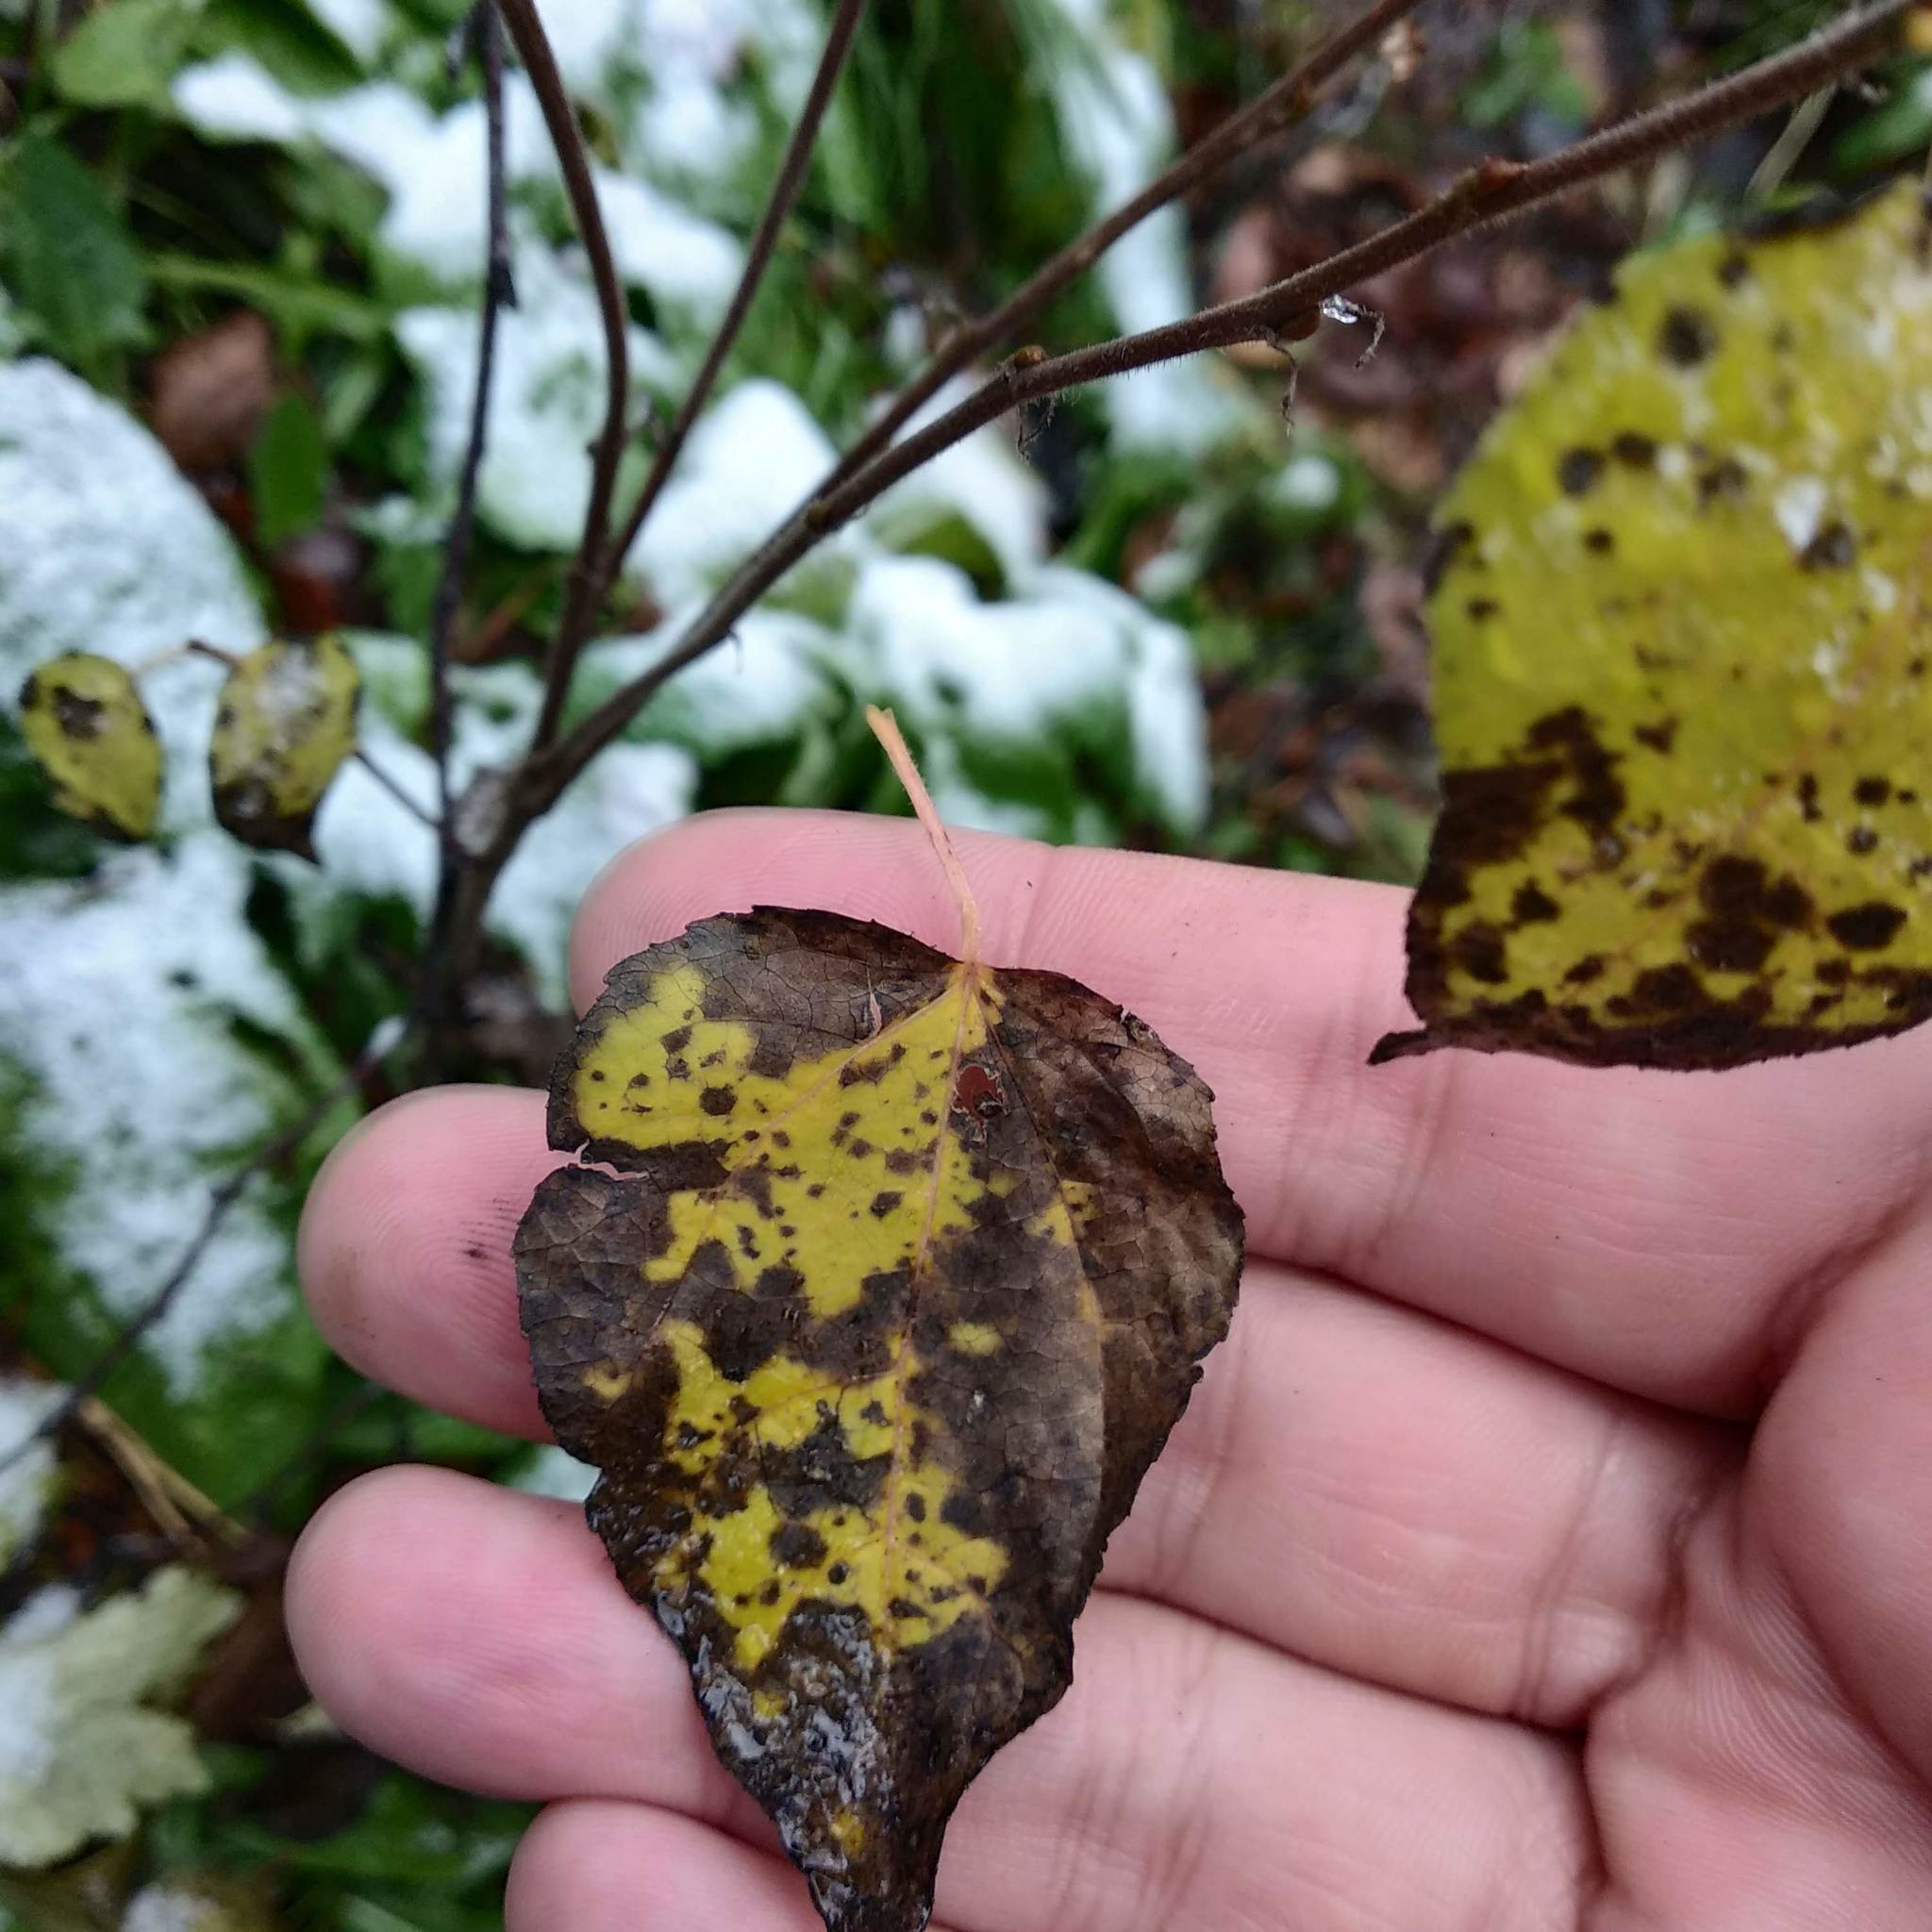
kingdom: Plantae
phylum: Tracheophyta
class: Magnoliopsida
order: Malpighiales
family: Salicaceae
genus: Populus
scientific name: Populus tremula
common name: European aspen
